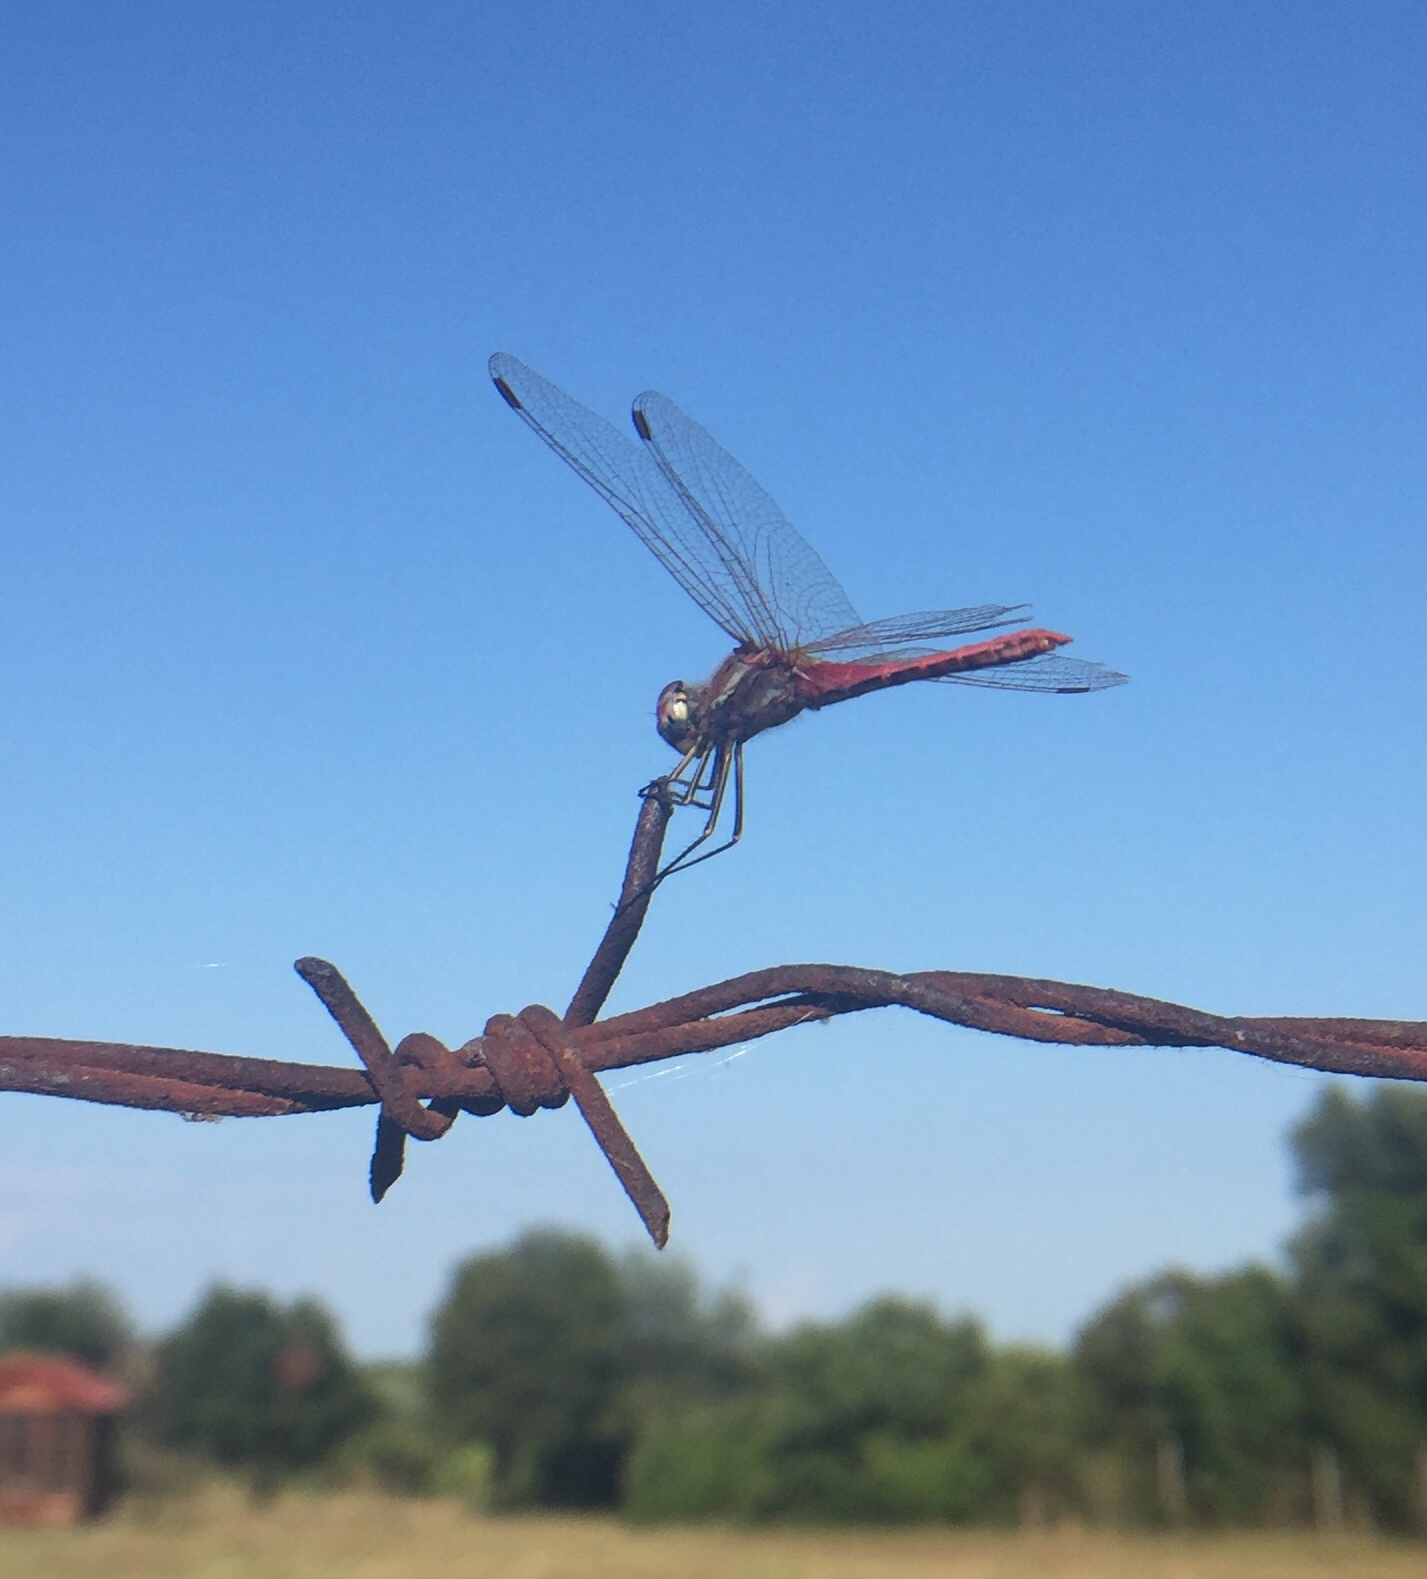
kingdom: Animalia
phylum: Arthropoda
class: Insecta
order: Odonata
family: Libellulidae
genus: Sympetrum
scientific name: Sympetrum fonscolombii
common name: Red-veined darter
